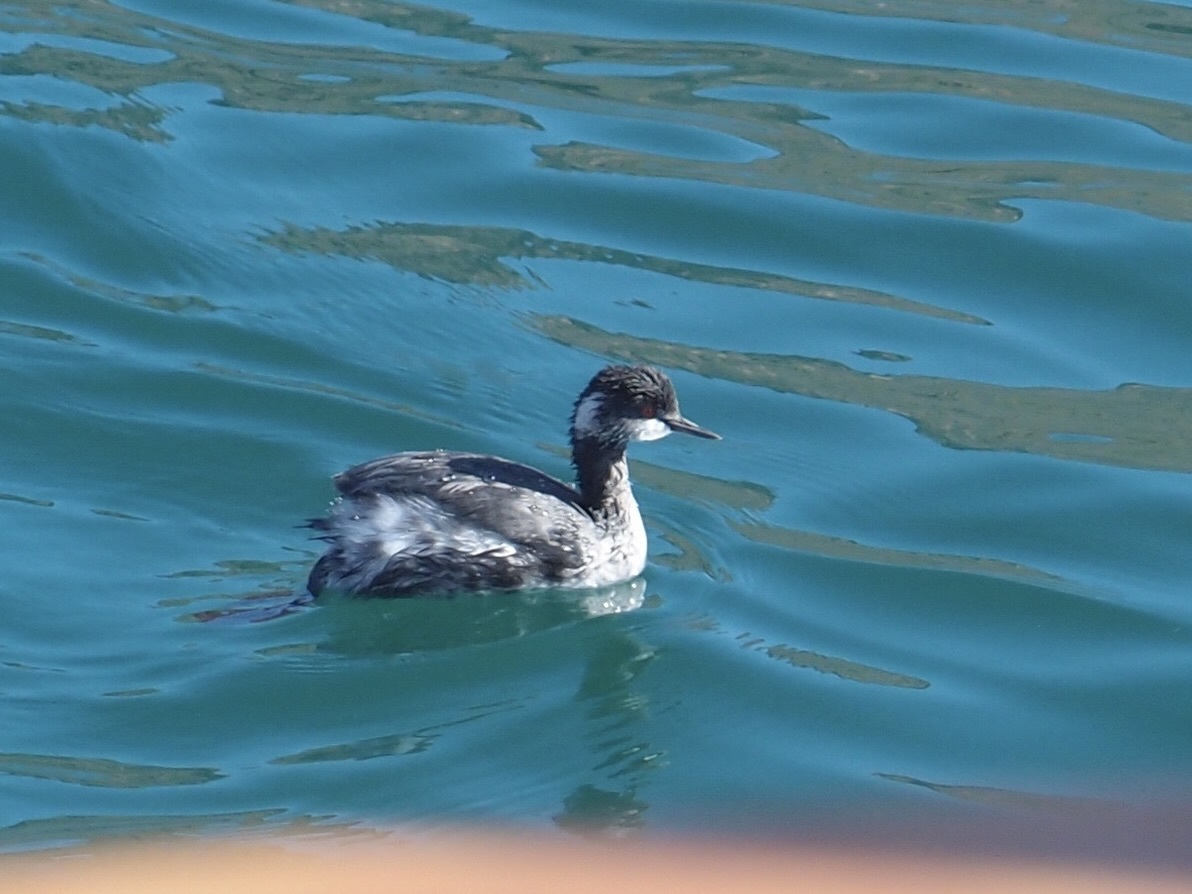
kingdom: Animalia
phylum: Chordata
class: Aves
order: Podicipediformes
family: Podicipedidae
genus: Podiceps
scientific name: Podiceps nigricollis
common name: Black-necked grebe
